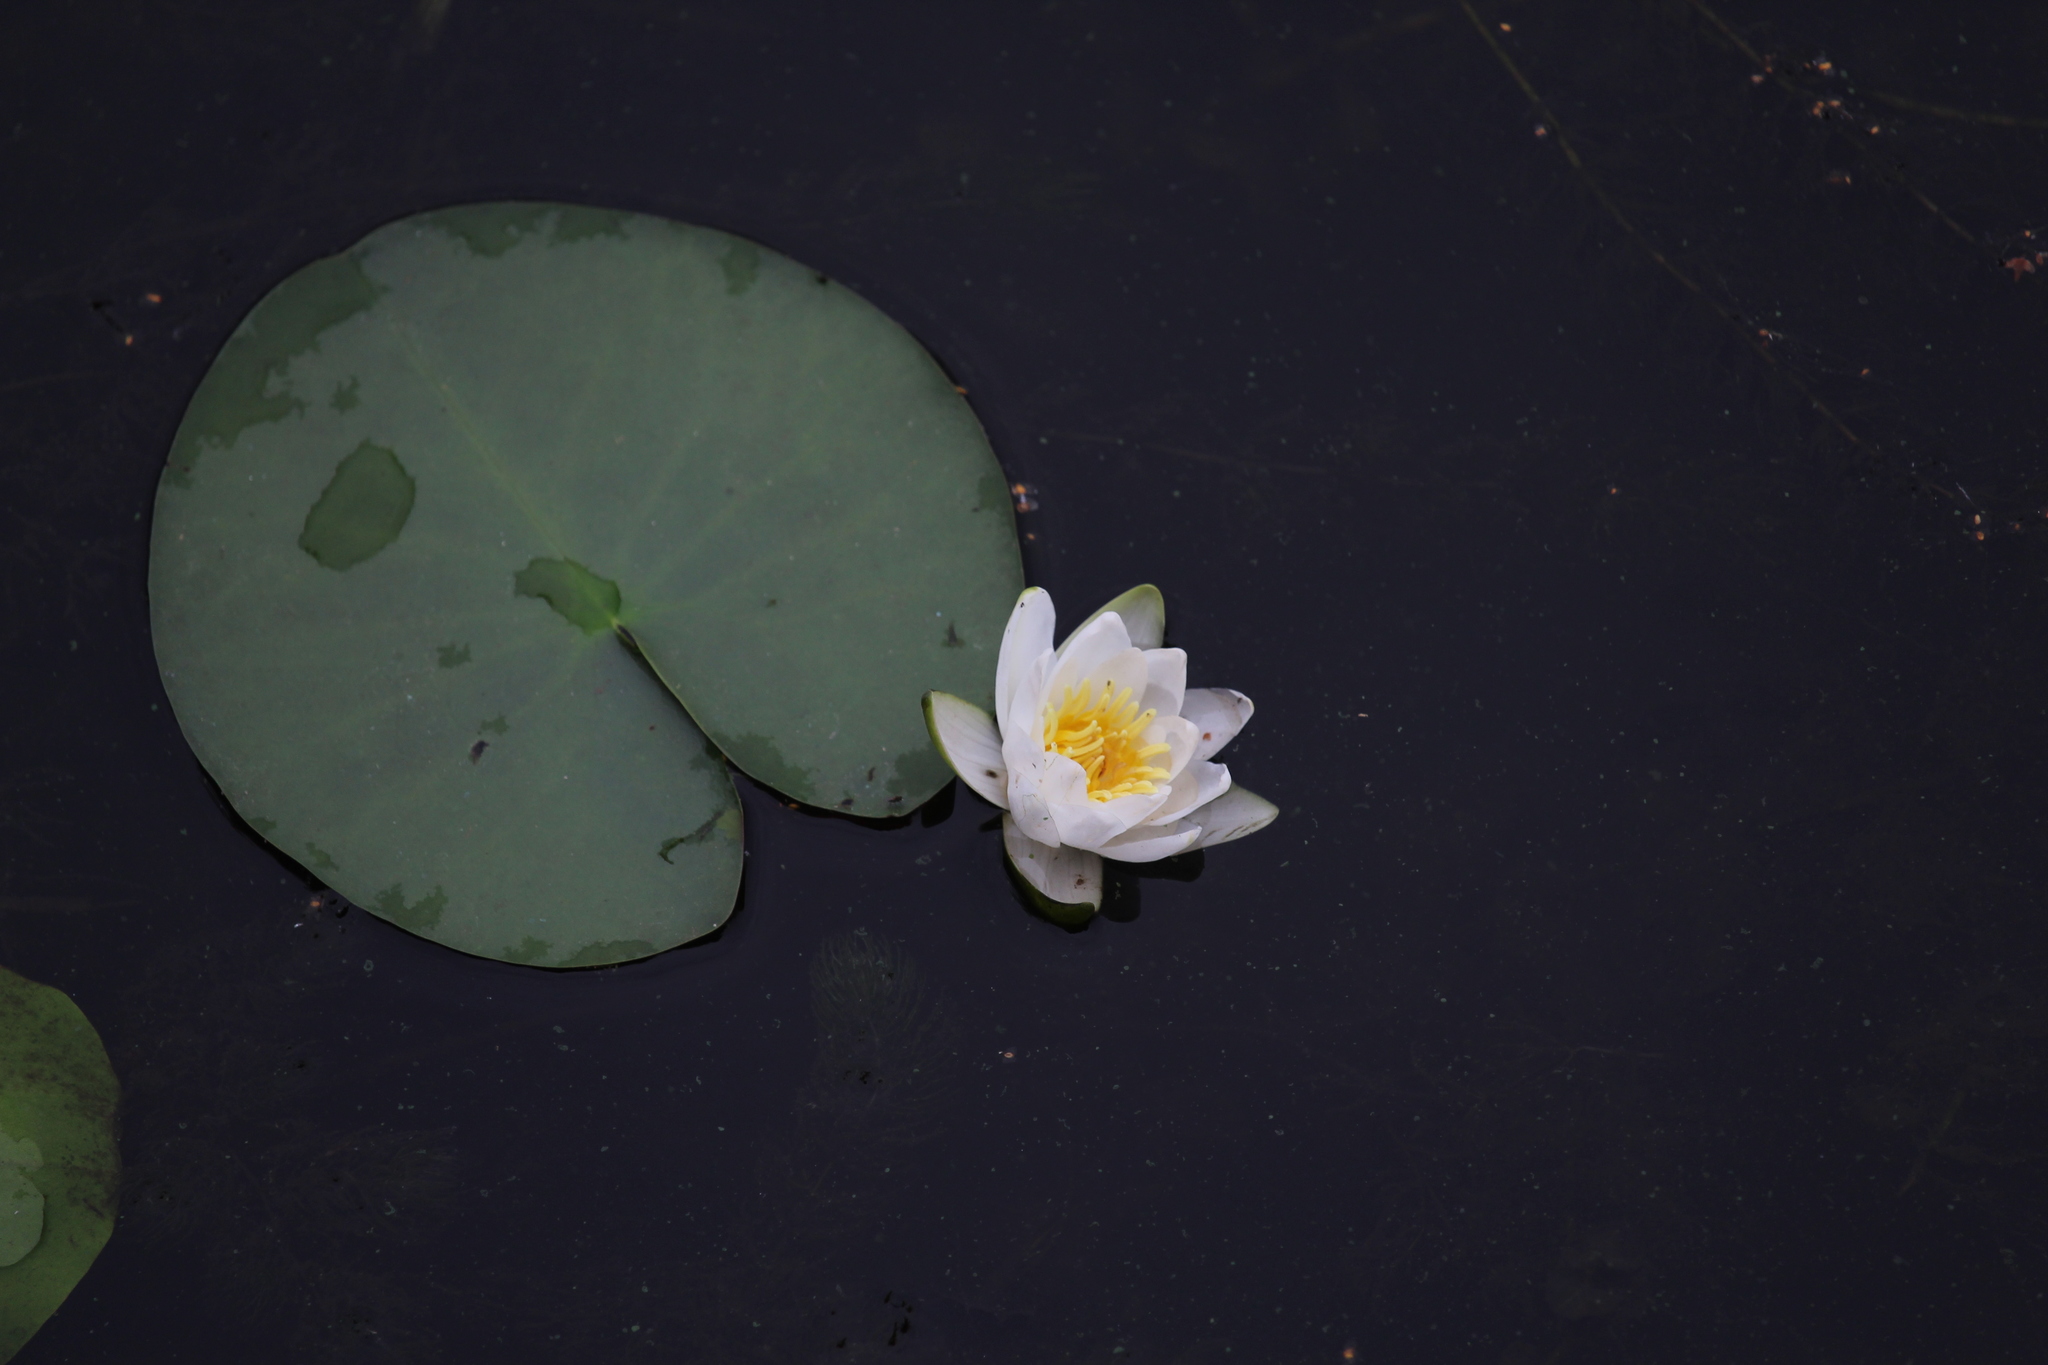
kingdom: Plantae
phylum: Tracheophyta
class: Magnoliopsida
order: Nymphaeales
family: Nymphaeaceae
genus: Nymphaea
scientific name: Nymphaea candida
